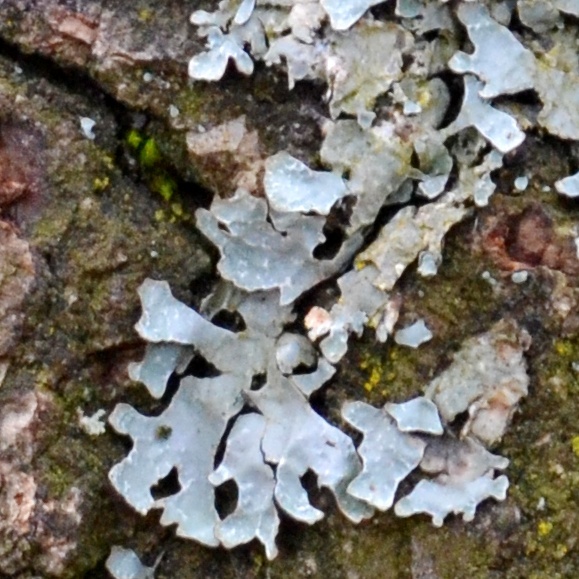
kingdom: Fungi
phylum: Ascomycota
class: Lecanoromycetes
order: Lecanorales
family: Parmeliaceae
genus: Parmelia
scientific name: Parmelia sulcata
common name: Netted shield lichen
